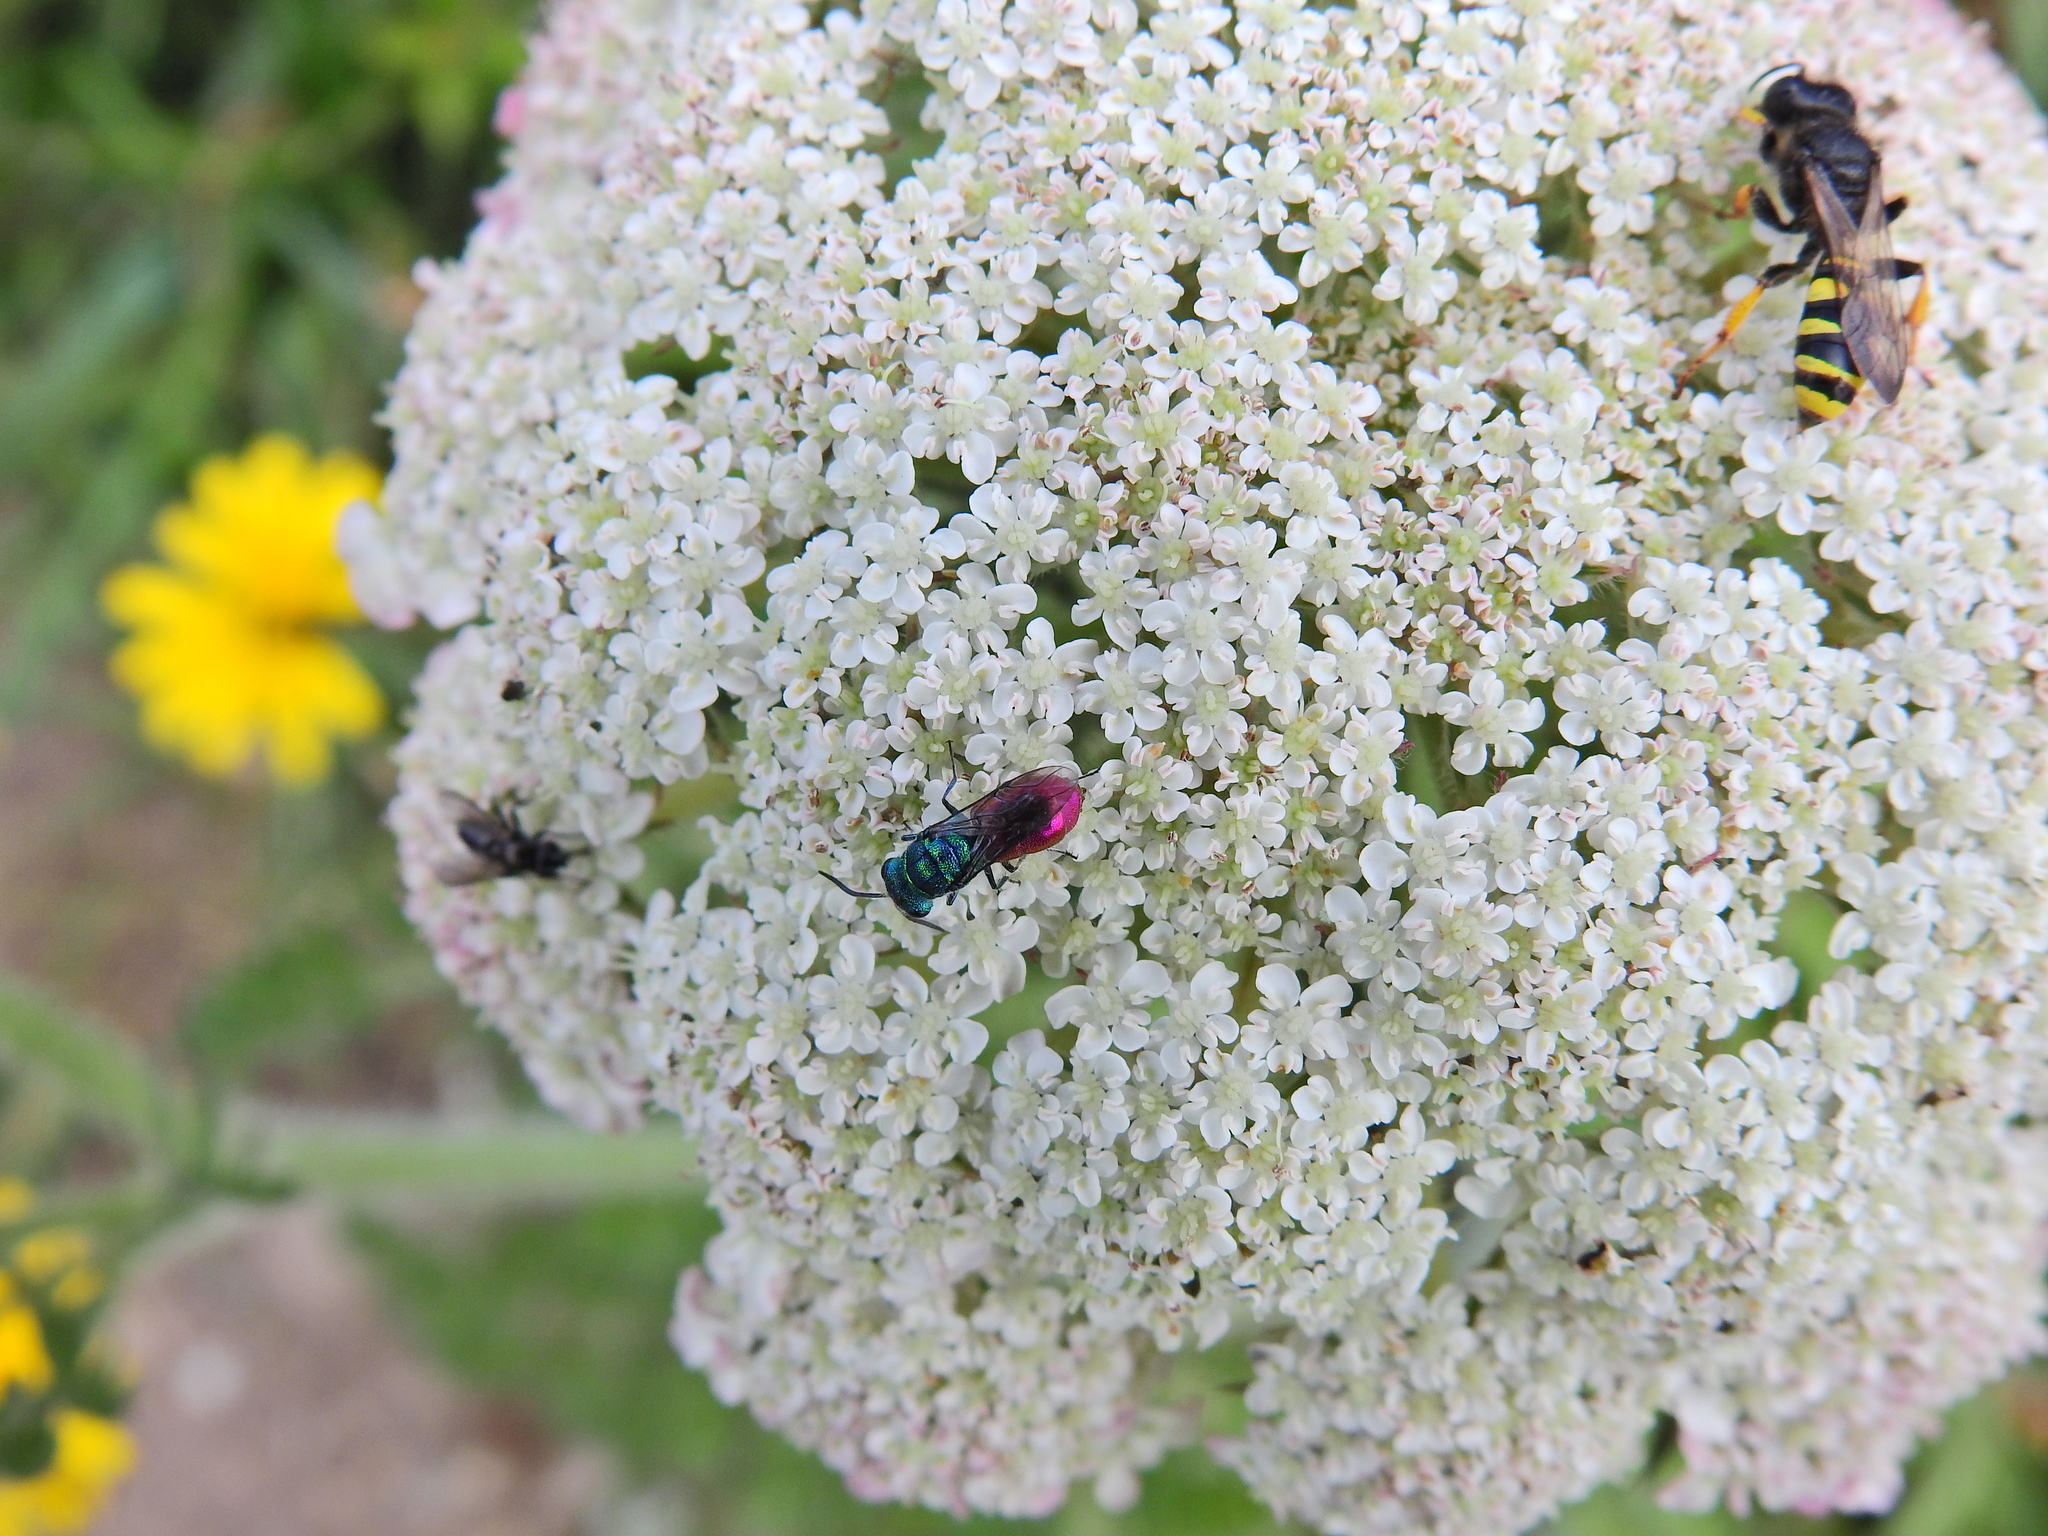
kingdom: Animalia
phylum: Arthropoda
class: Insecta
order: Hymenoptera
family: Crabronidae
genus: Crabro
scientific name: Crabro cribrarius
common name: Slender bodied digger wasp
